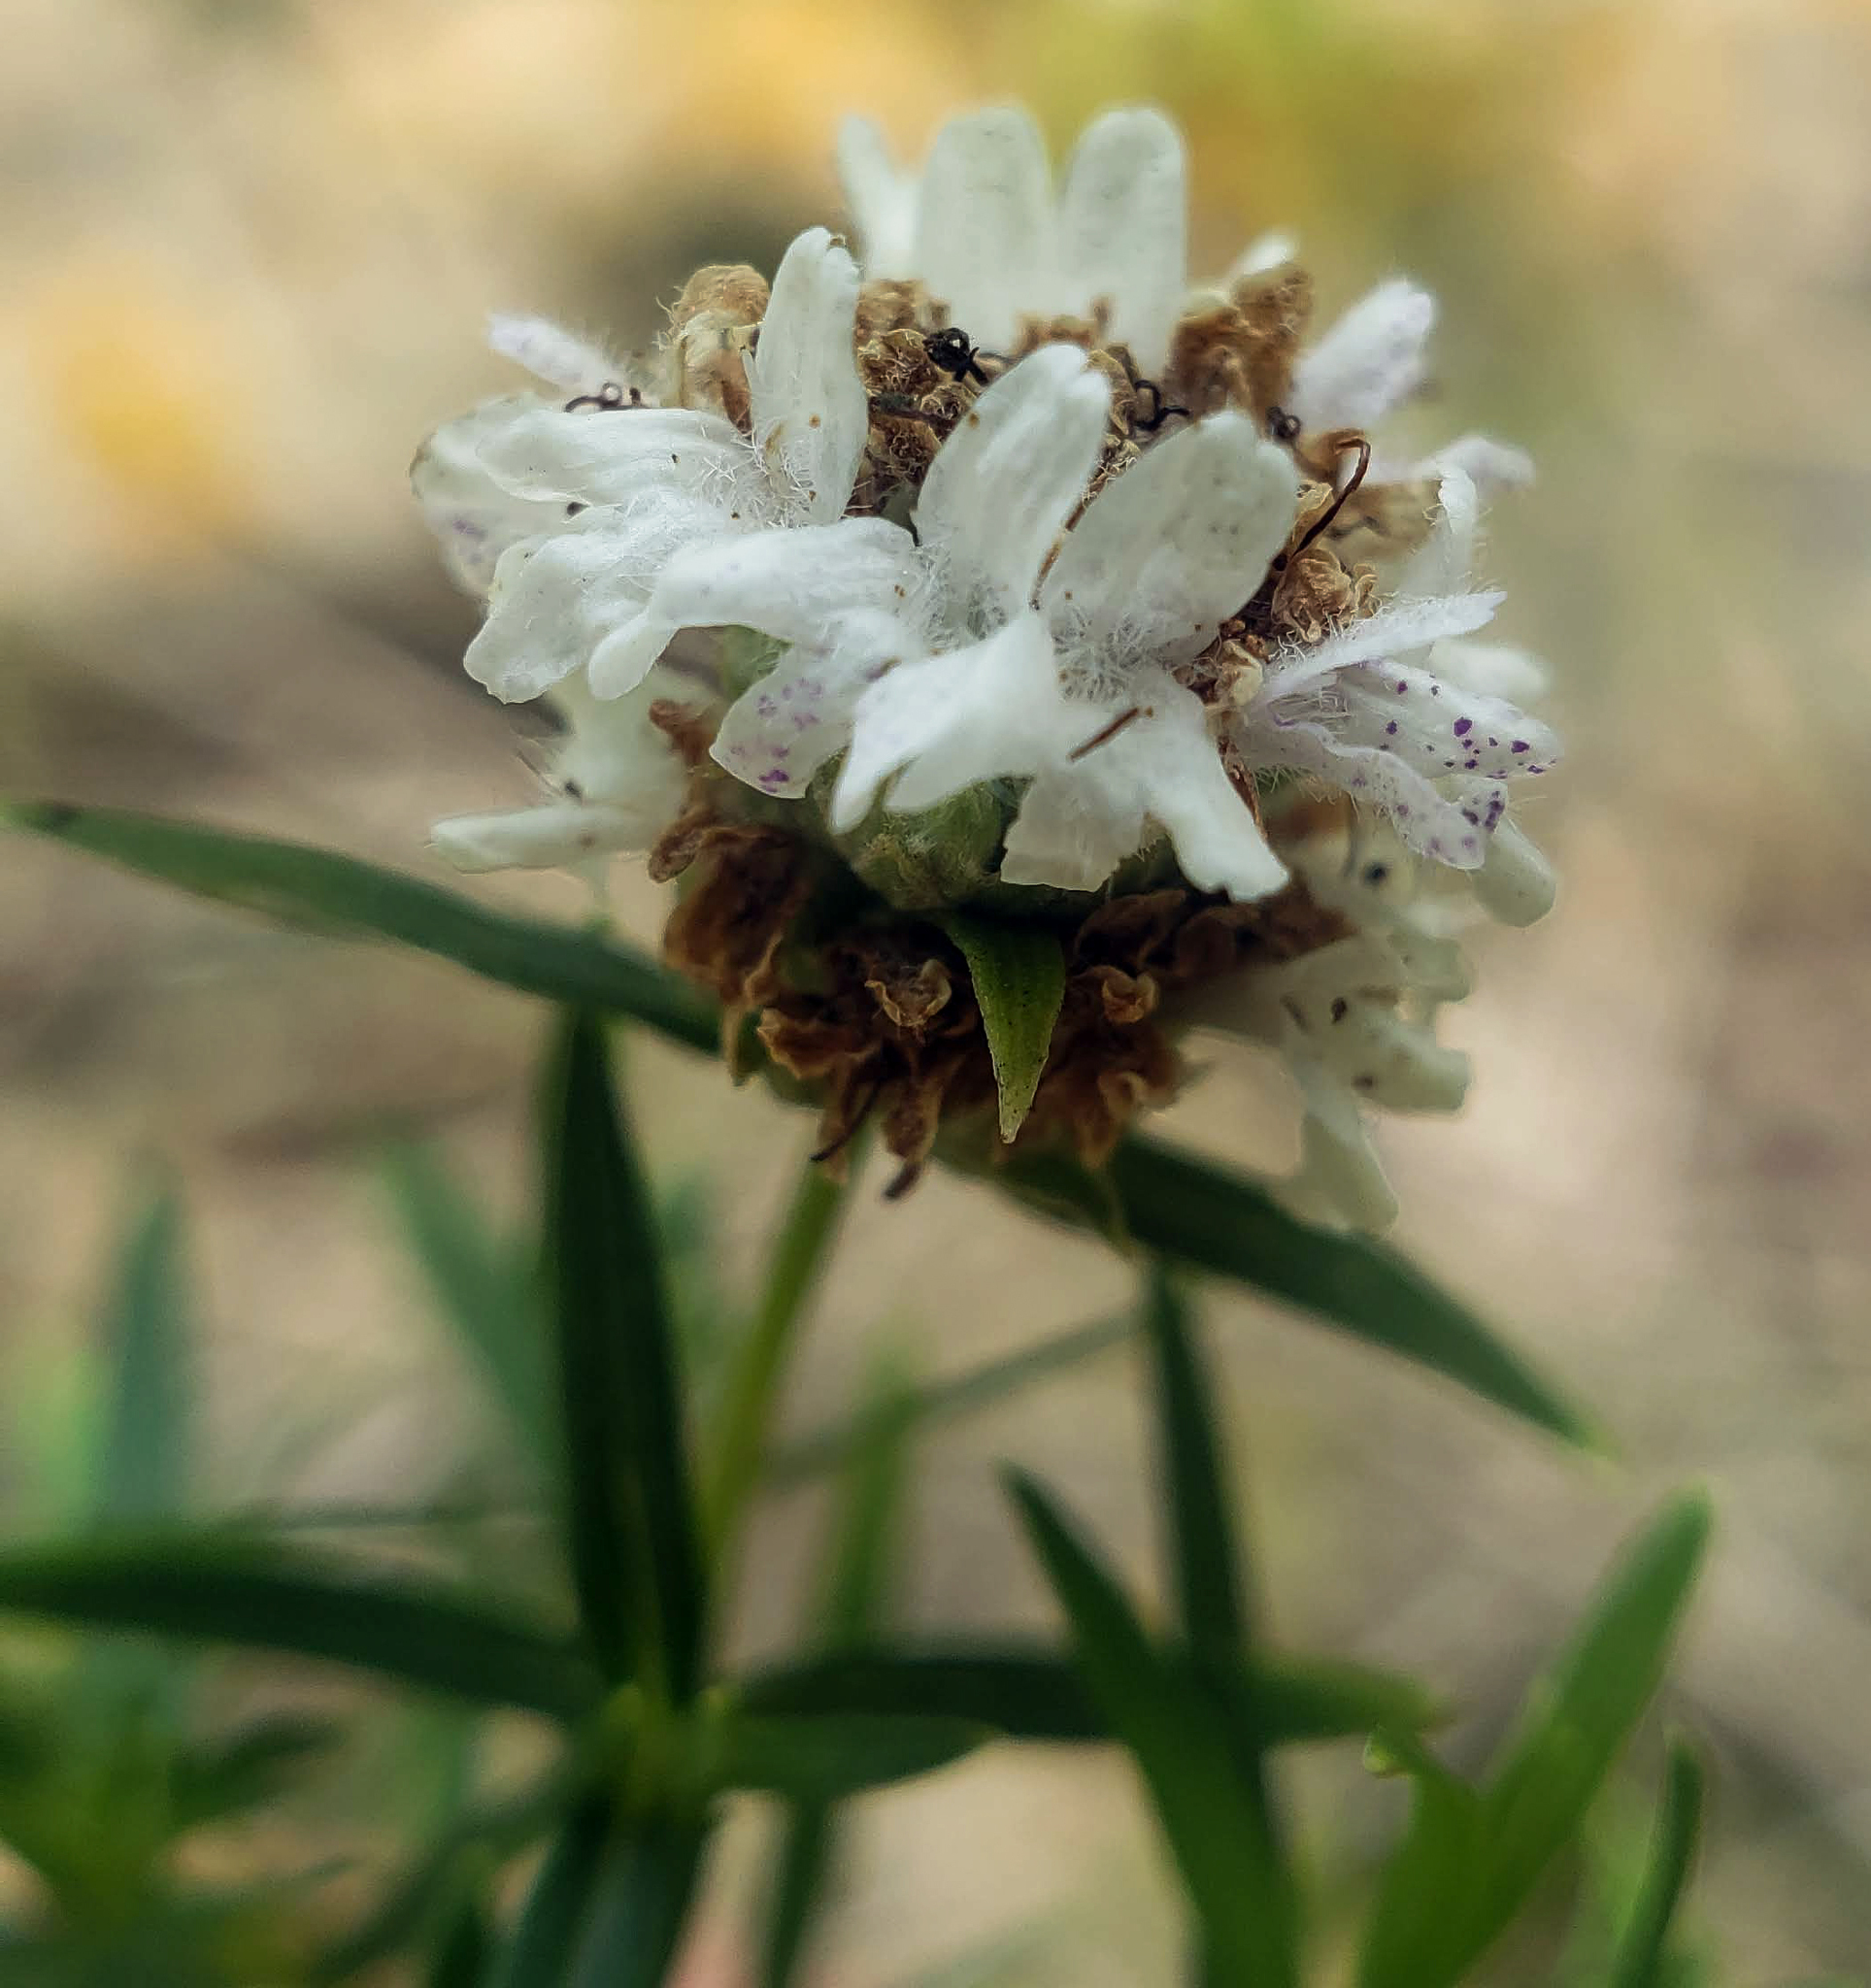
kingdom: Plantae
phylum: Tracheophyta
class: Magnoliopsida
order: Lamiales
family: Lamiaceae
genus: Pycnanthemum
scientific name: Pycnanthemum virginianum
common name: Virginia mountain-mint
